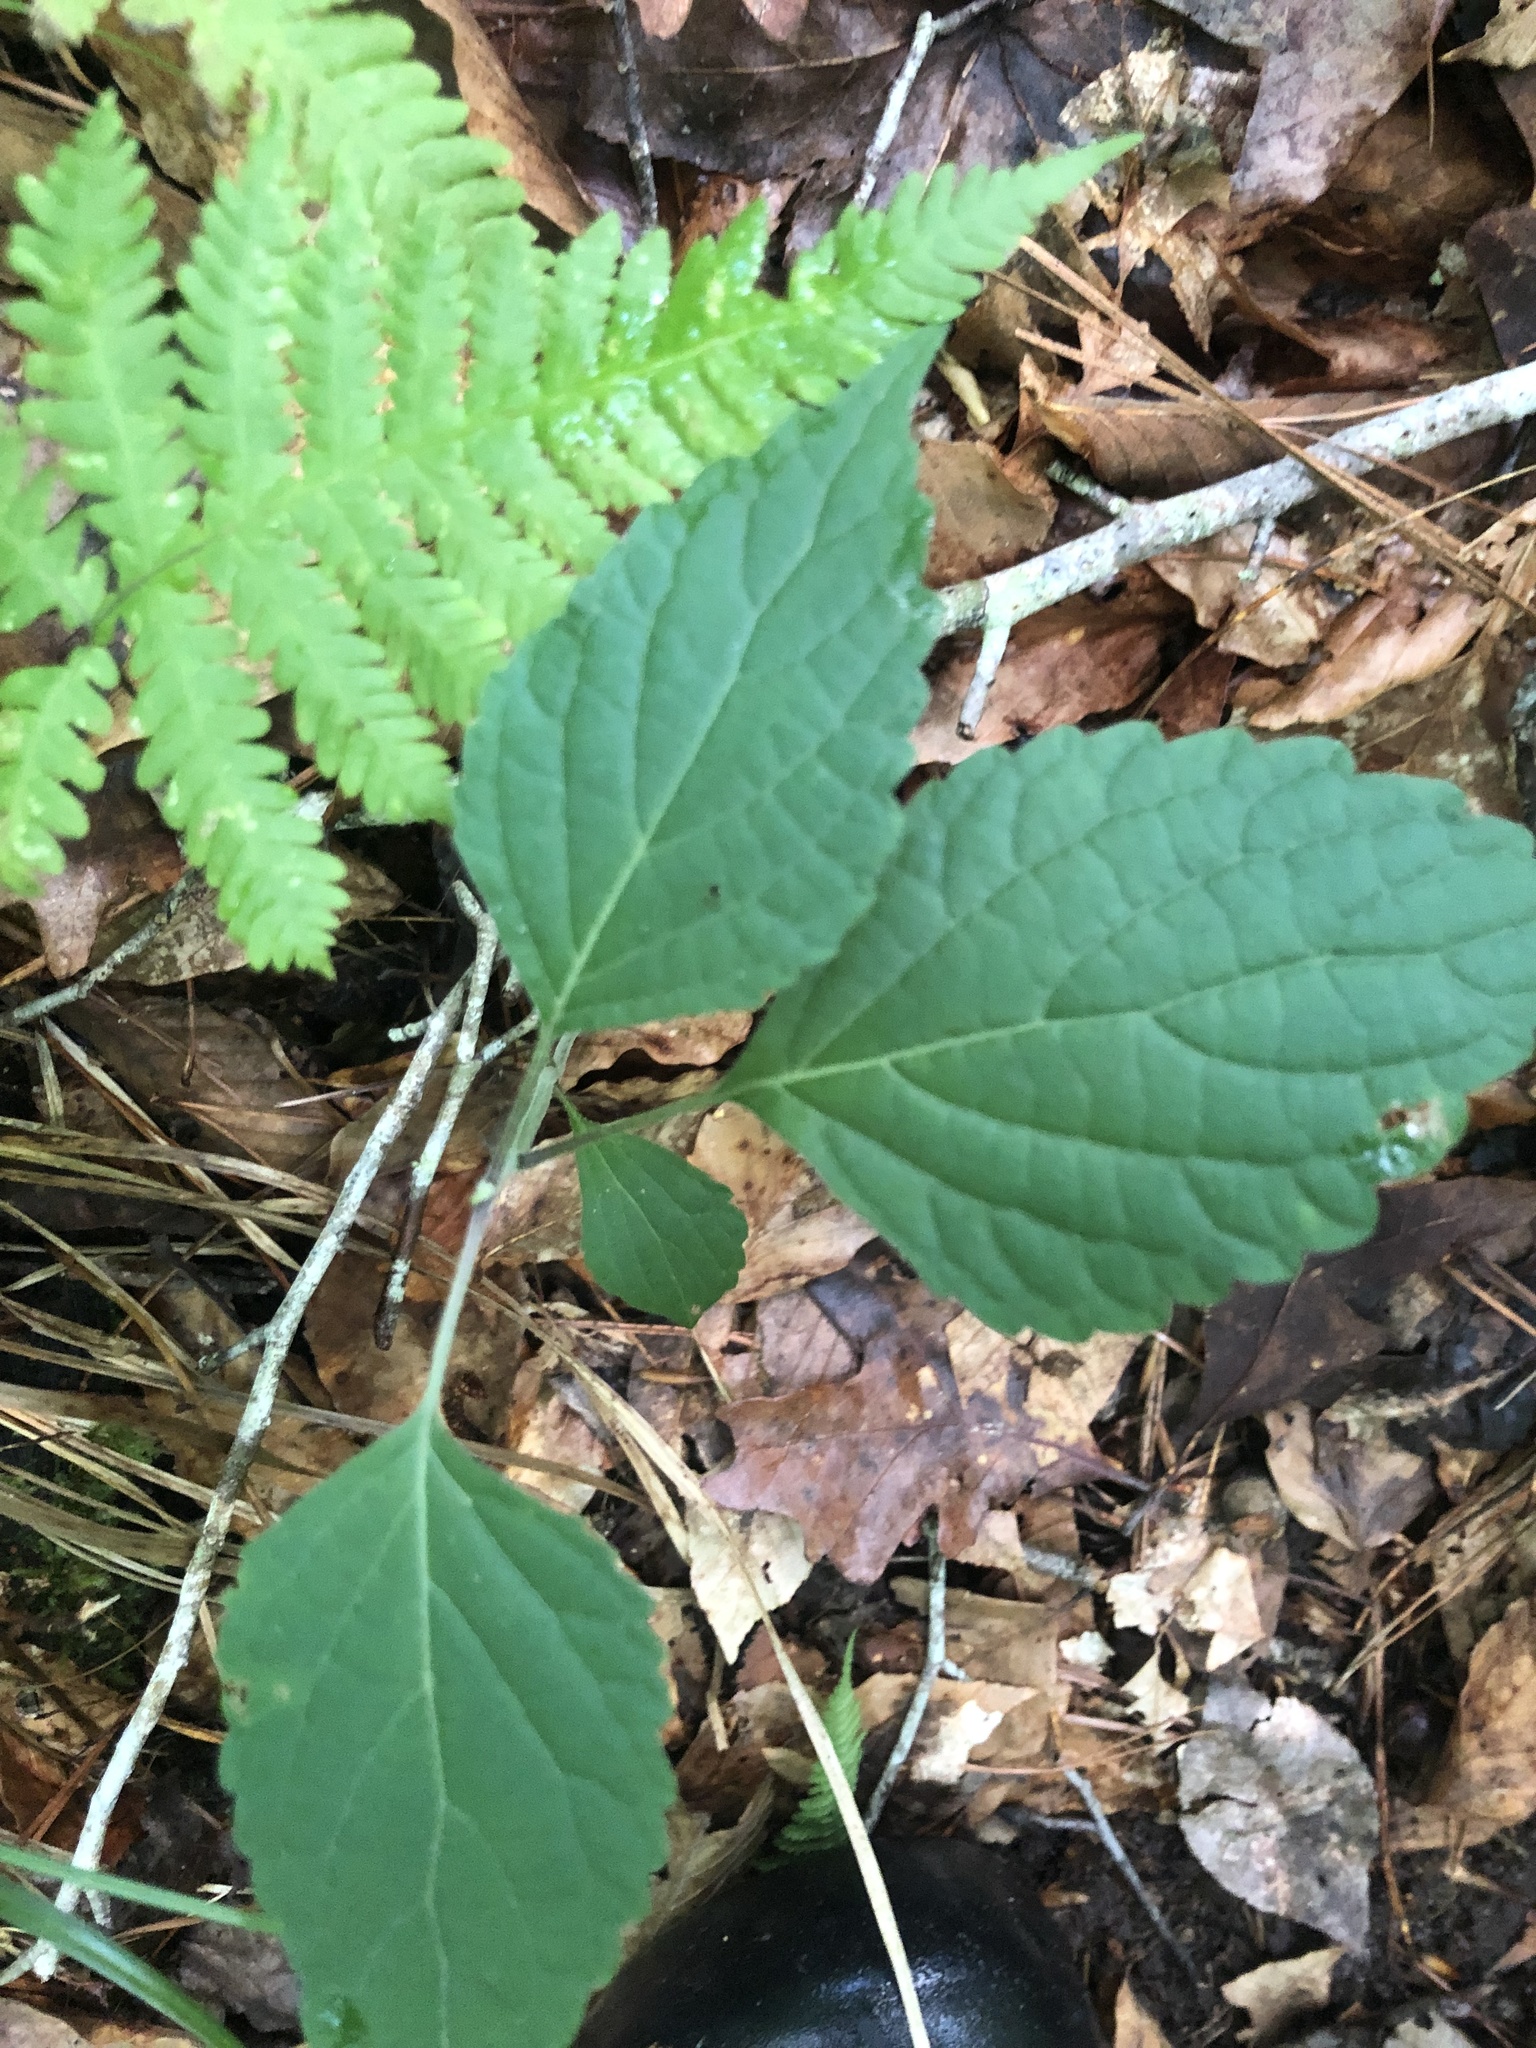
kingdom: Plantae
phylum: Tracheophyta
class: Magnoliopsida
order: Lamiales
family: Phrymaceae
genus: Phryma
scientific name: Phryma leptostachya
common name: American lopseed
